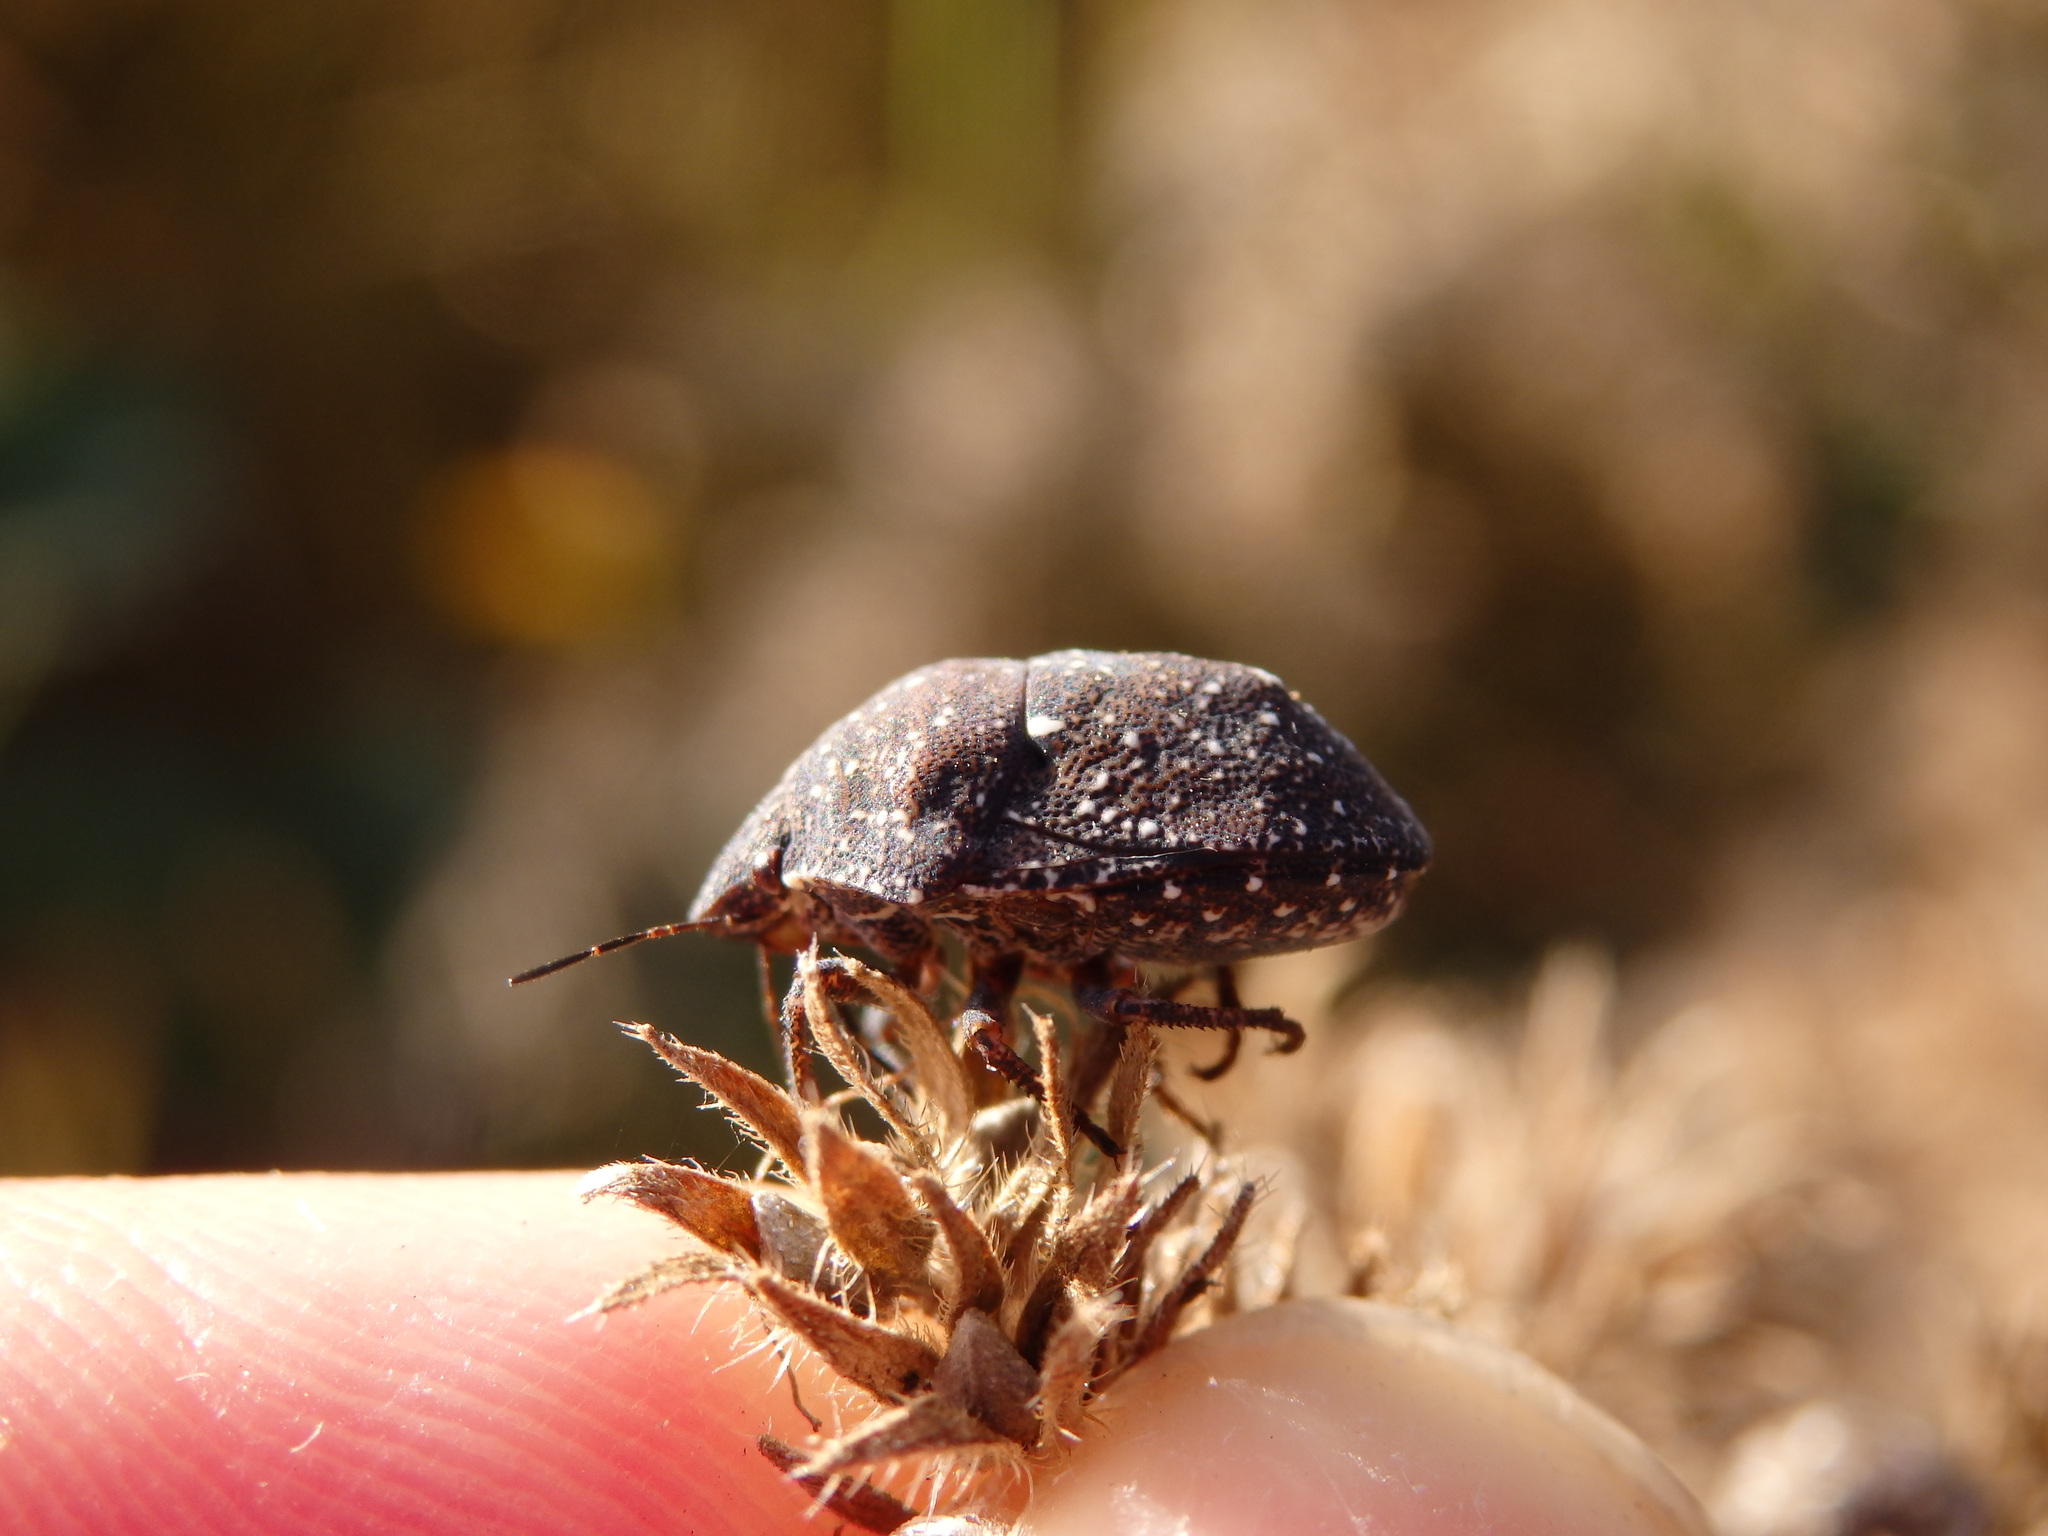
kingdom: Animalia
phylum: Arthropoda
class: Insecta
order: Hemiptera
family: Scutelleridae
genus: Psacasta
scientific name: Psacasta exanthematica
